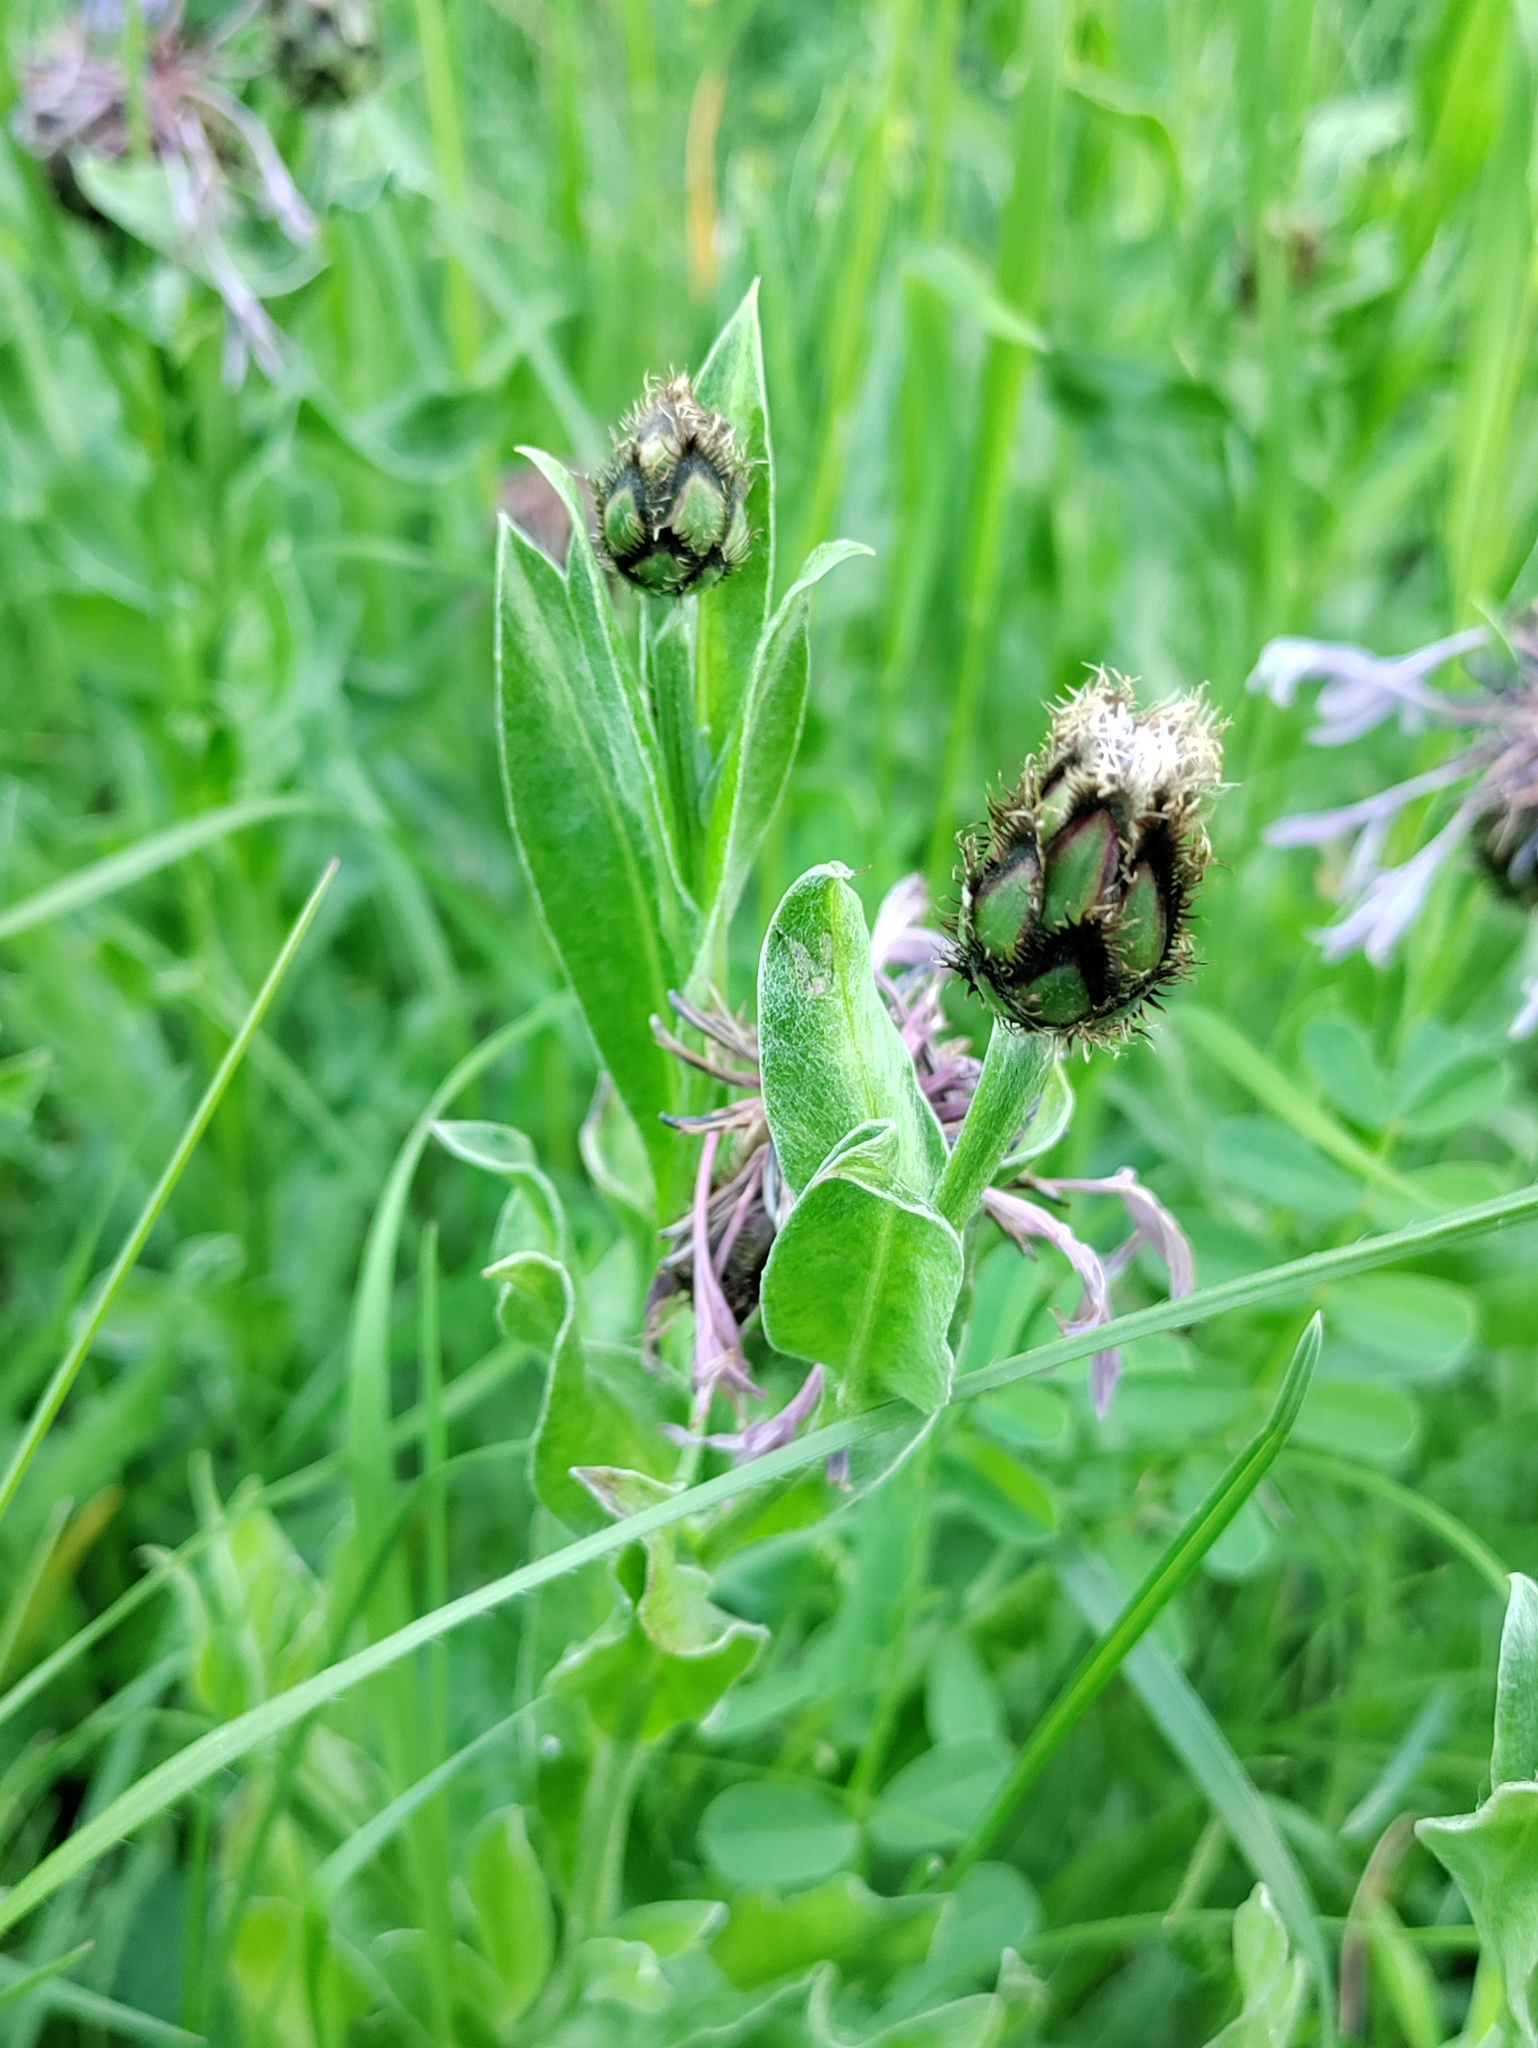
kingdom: Plantae
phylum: Tracheophyta
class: Magnoliopsida
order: Asterales
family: Asteraceae
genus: Centaurea
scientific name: Centaurea triumfettii
